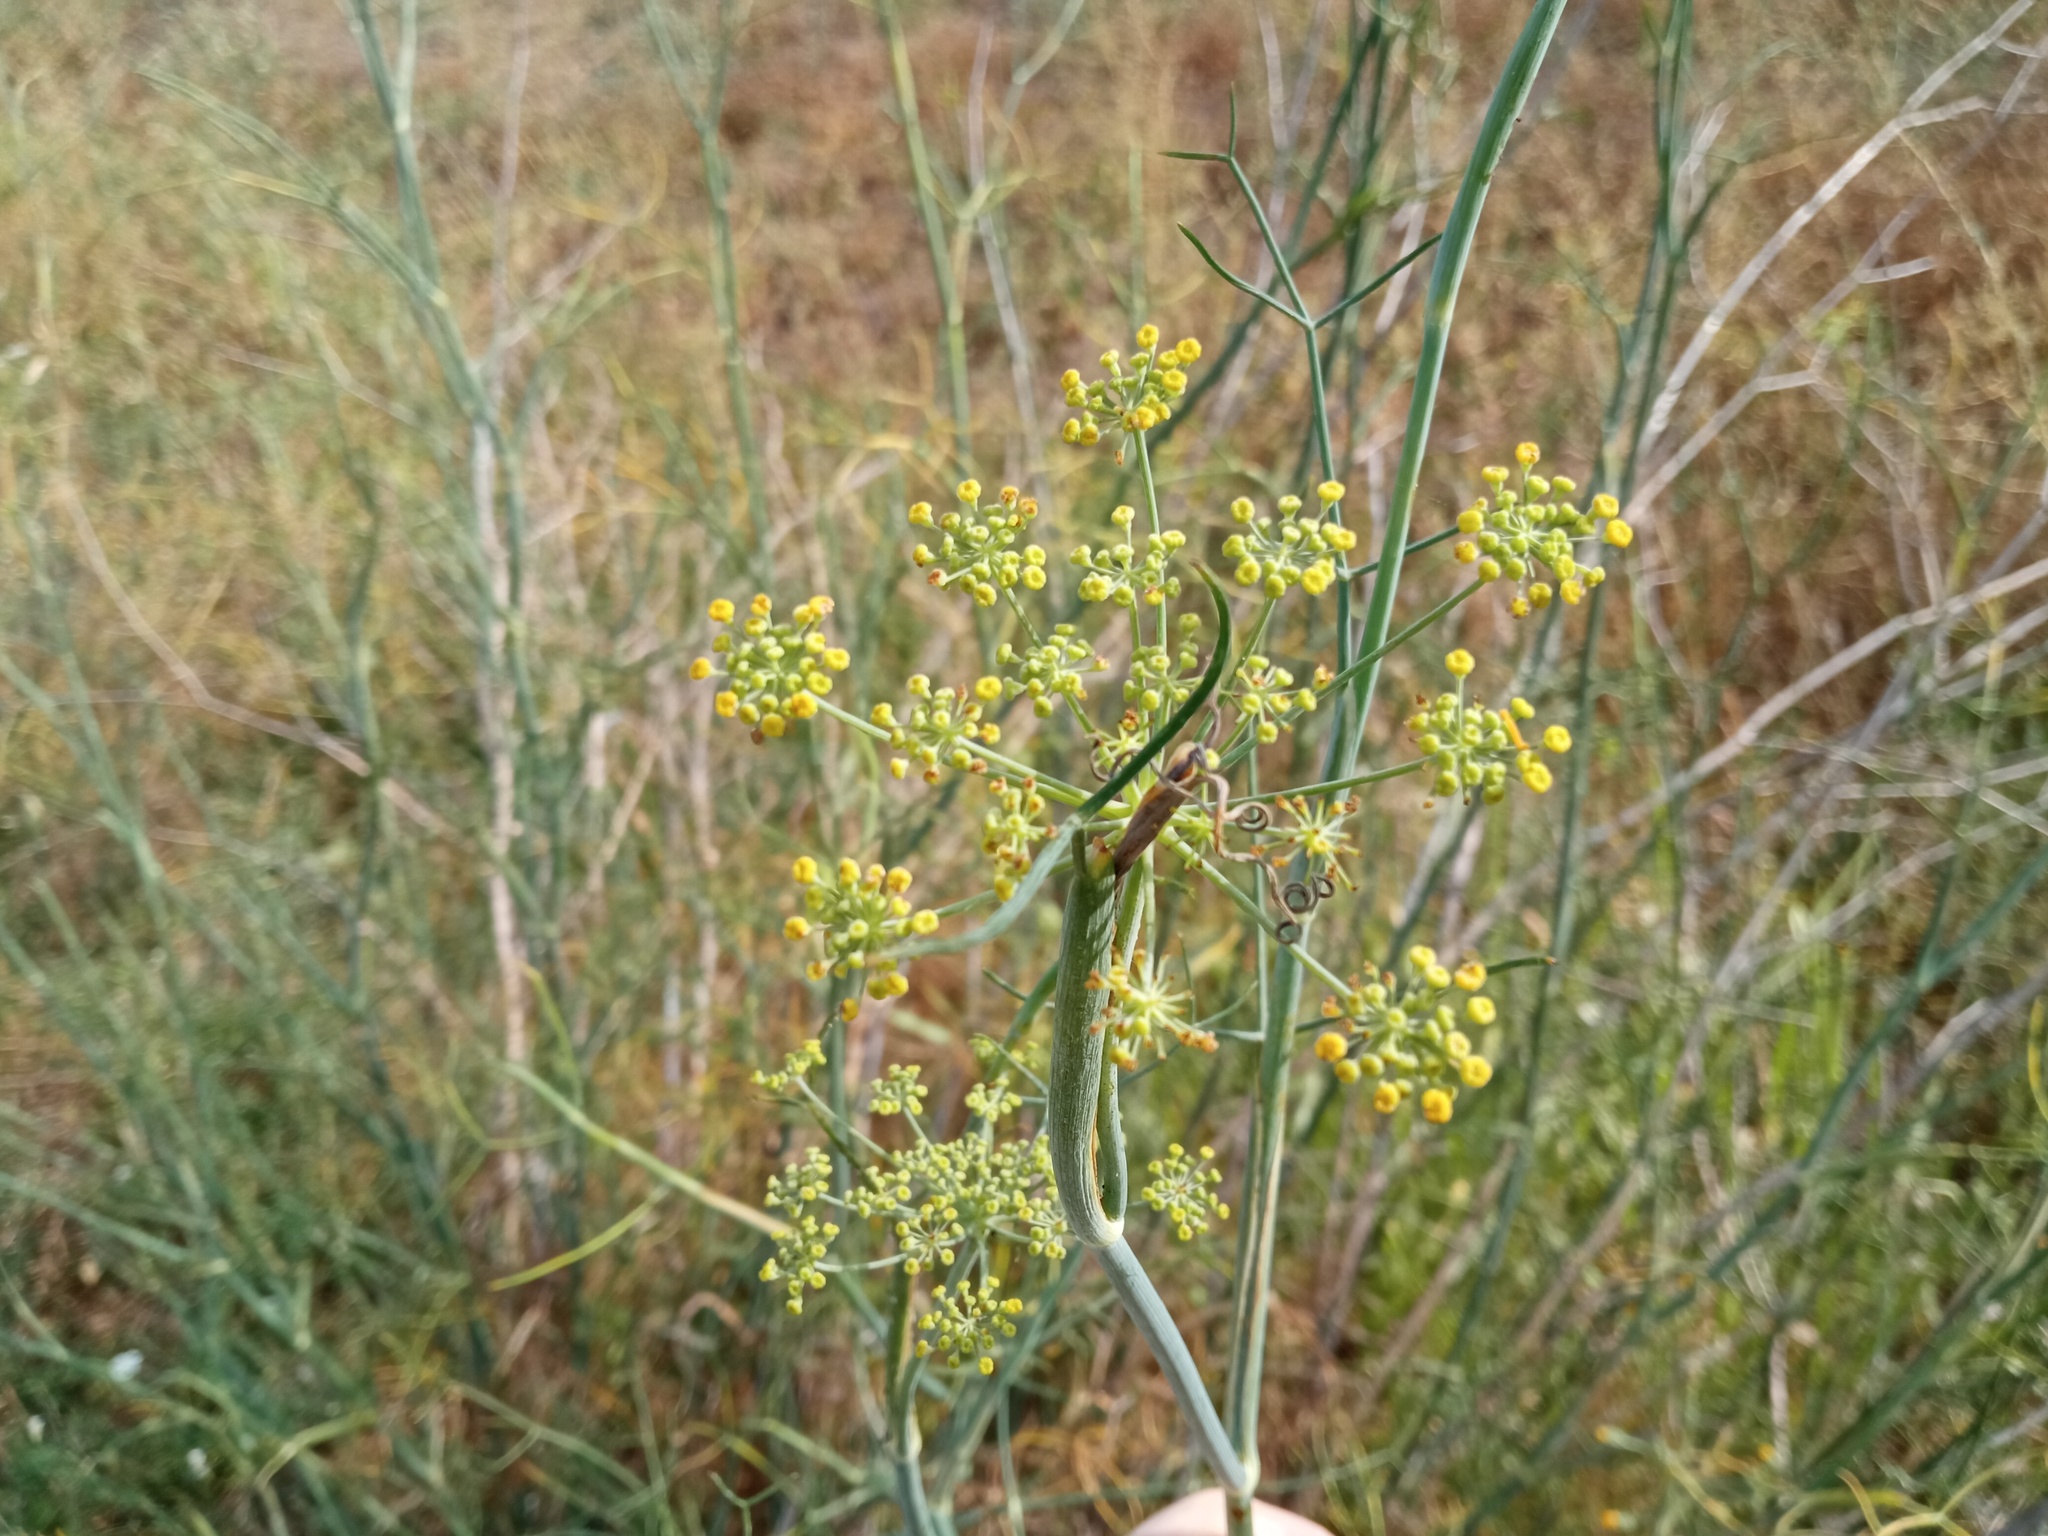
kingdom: Plantae
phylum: Tracheophyta
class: Magnoliopsida
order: Apiales
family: Apiaceae
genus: Foeniculum
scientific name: Foeniculum vulgare
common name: Fennel
